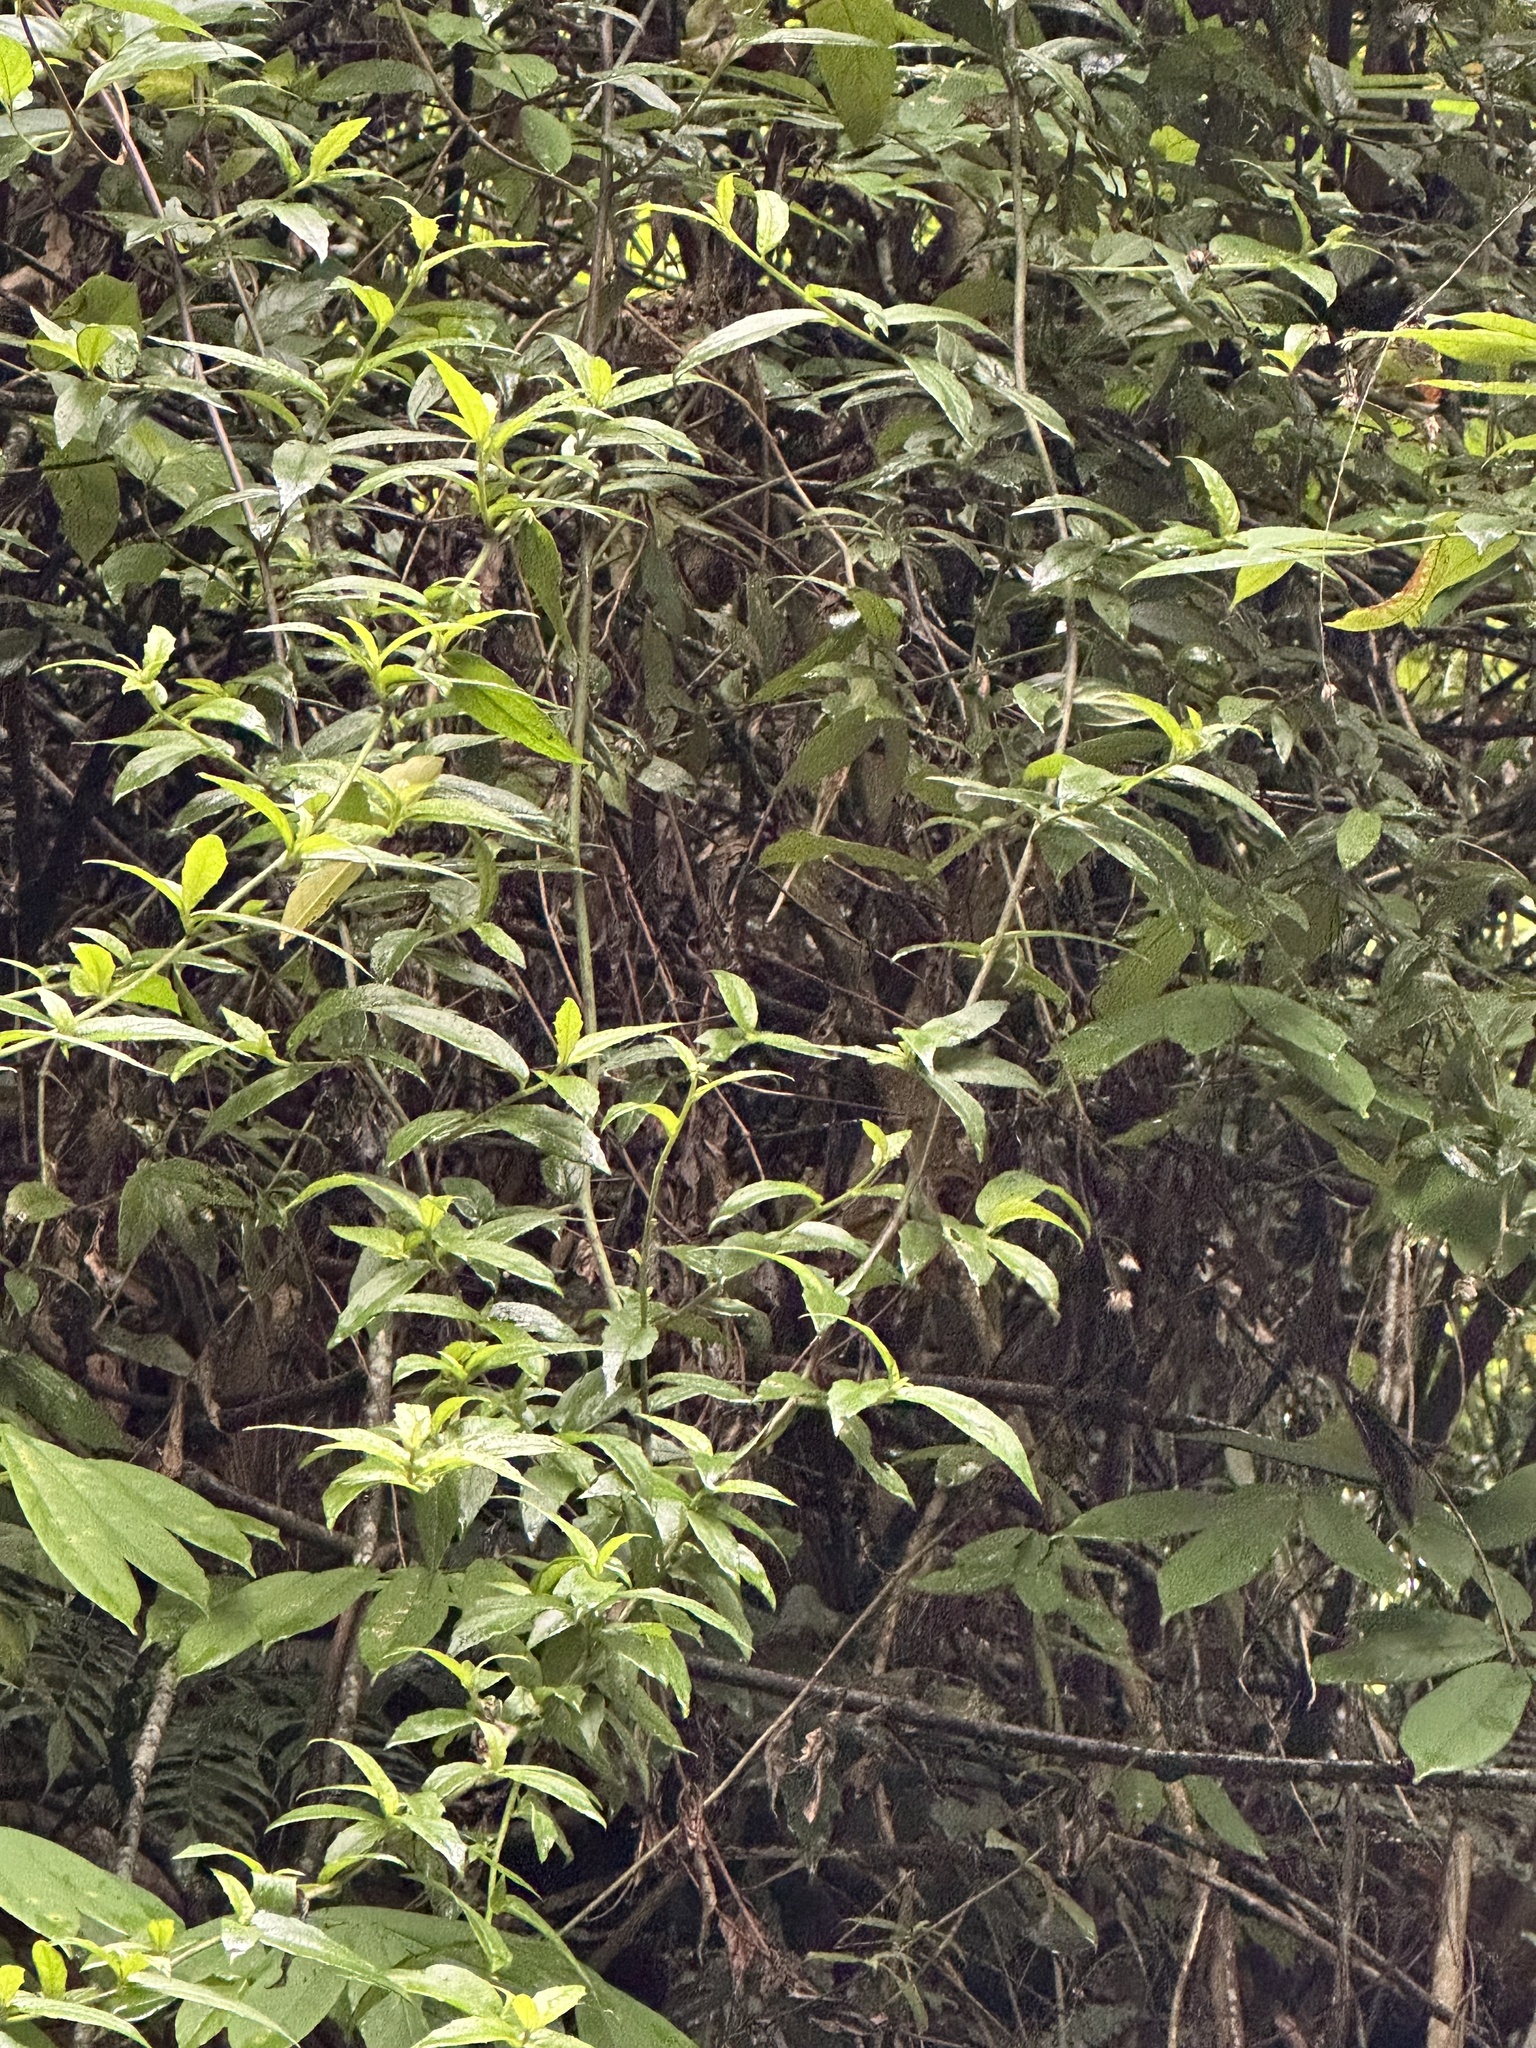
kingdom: Plantae
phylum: Tracheophyta
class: Magnoliopsida
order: Asterales
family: Asteraceae
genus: Blumea
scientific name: Blumea megacephala
